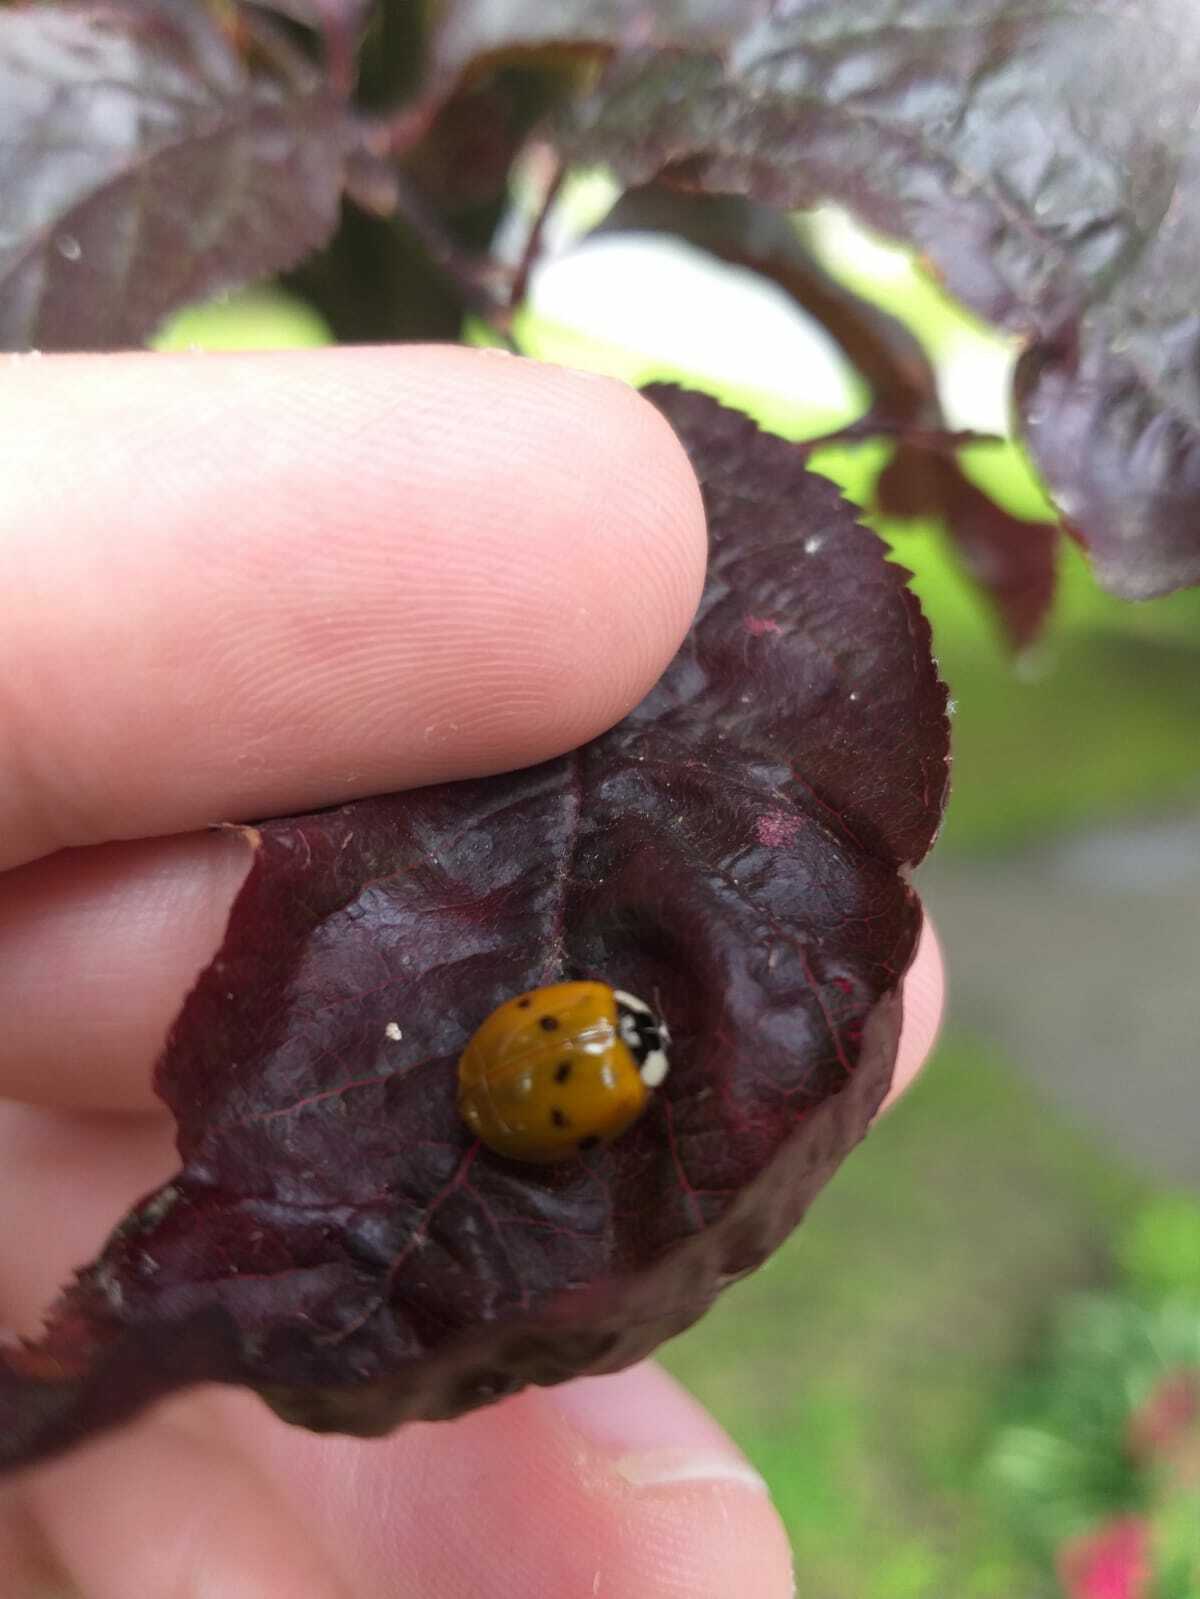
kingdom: Animalia
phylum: Arthropoda
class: Insecta
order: Coleoptera
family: Coccinellidae
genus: Harmonia
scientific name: Harmonia axyridis
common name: Harlequin ladybird
